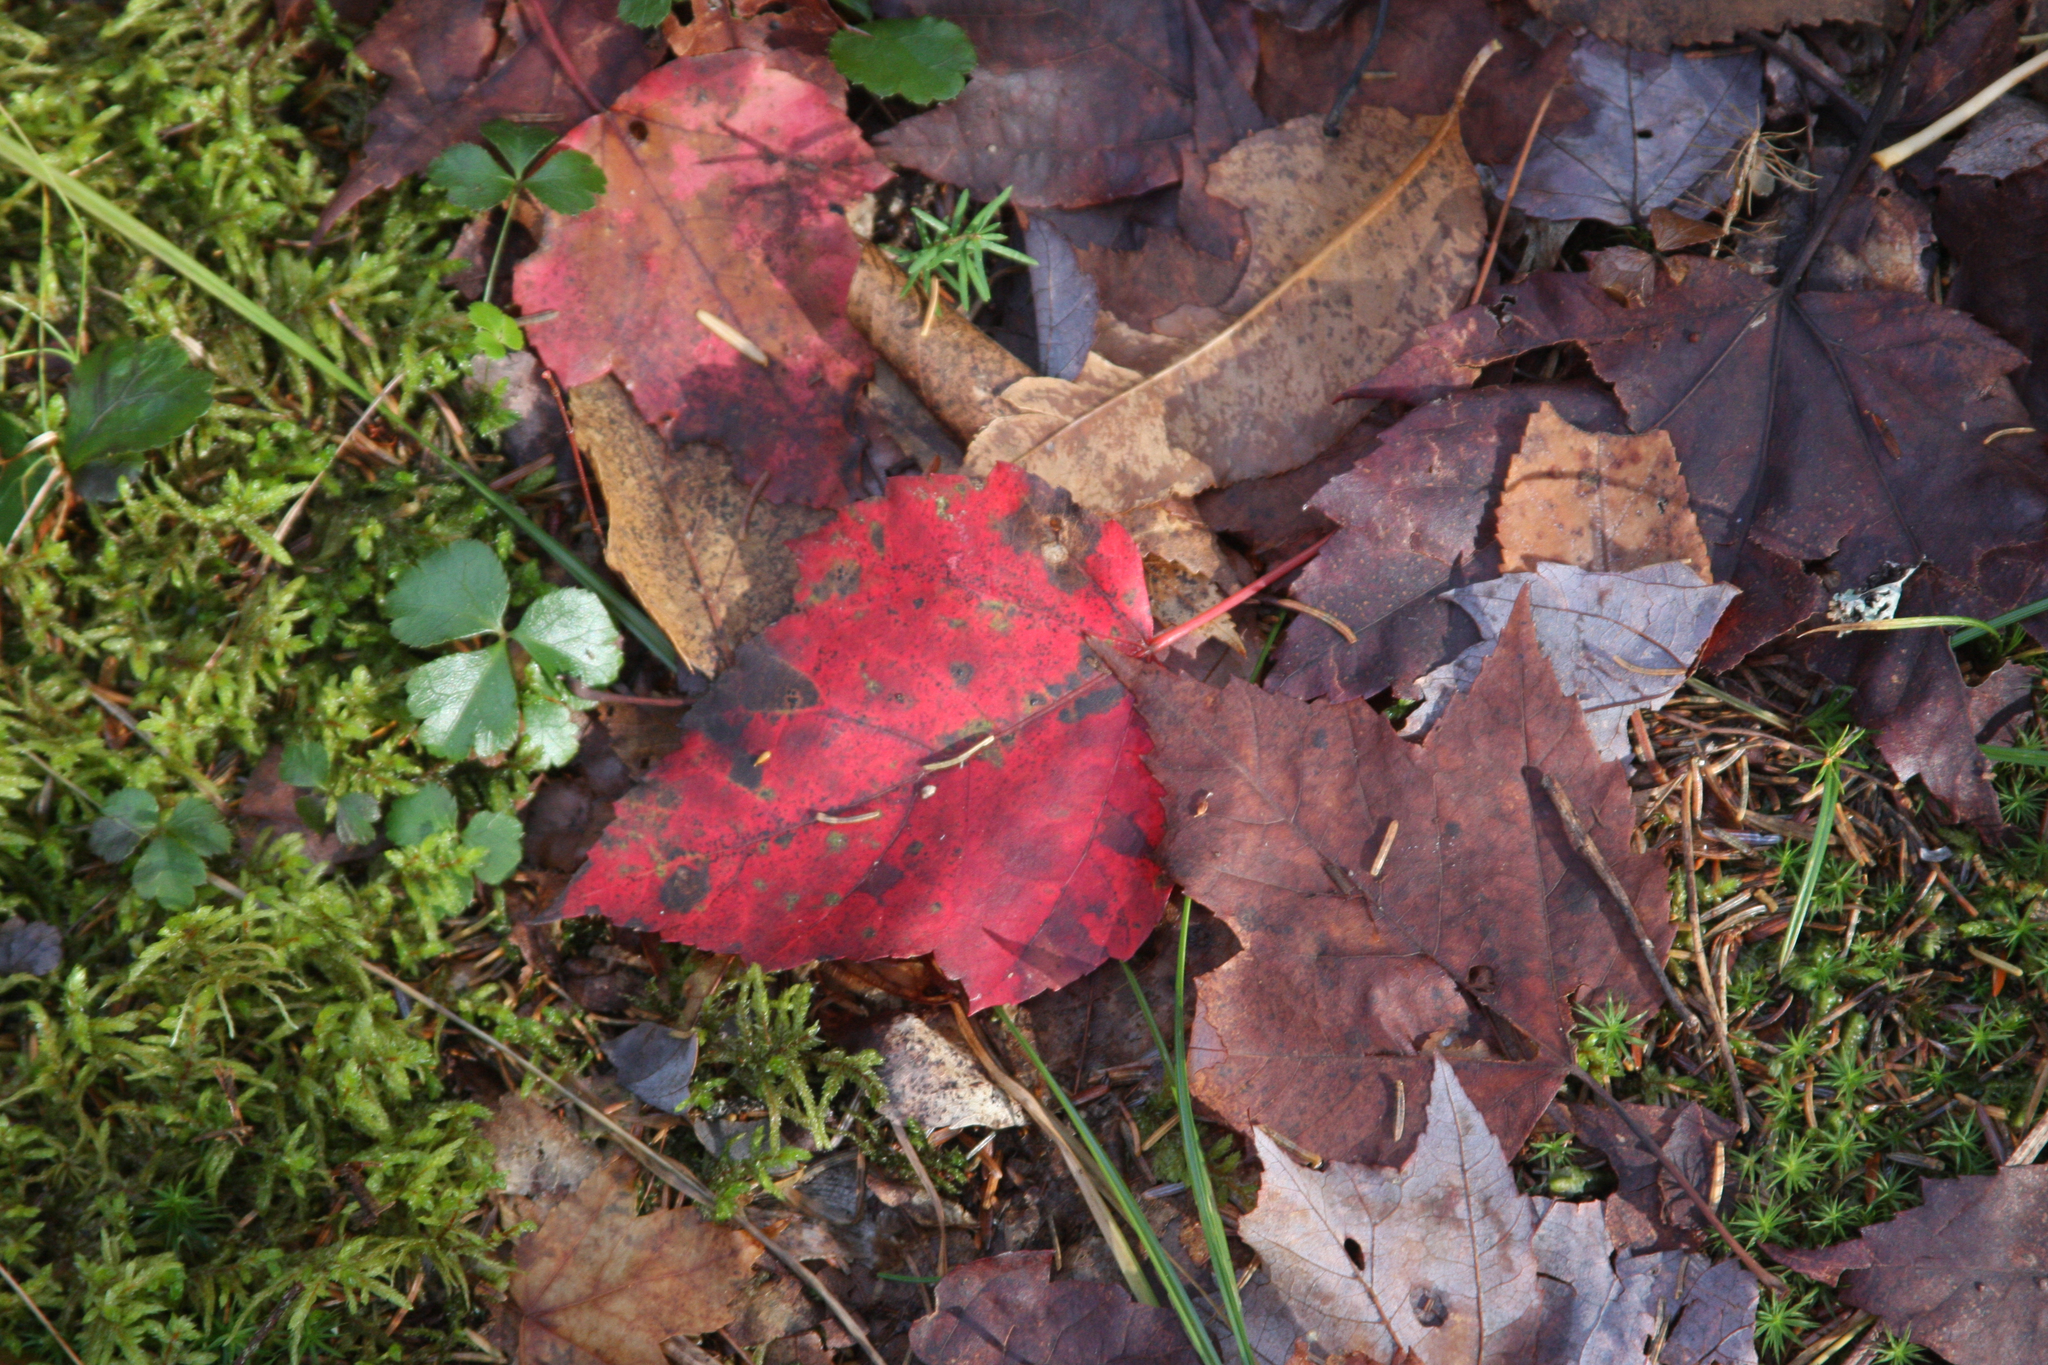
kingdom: Plantae
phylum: Tracheophyta
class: Magnoliopsida
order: Sapindales
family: Sapindaceae
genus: Acer
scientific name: Acer rubrum
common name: Red maple
